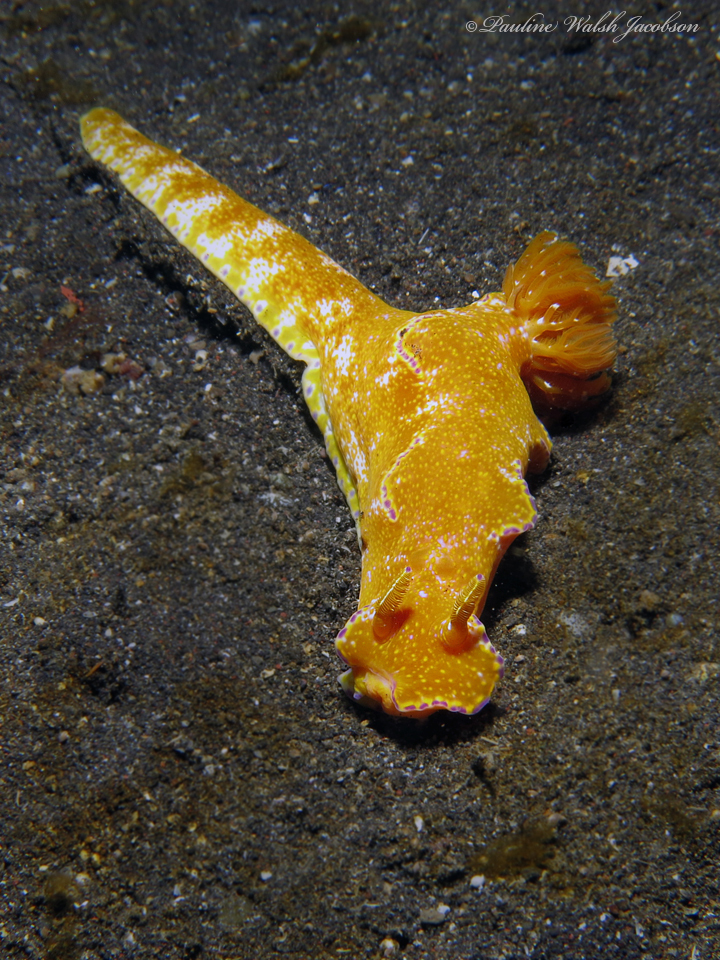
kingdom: Animalia
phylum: Mollusca
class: Gastropoda
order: Nudibranchia
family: Chromodorididae
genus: Ceratosoma
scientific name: Ceratosoma tenue
